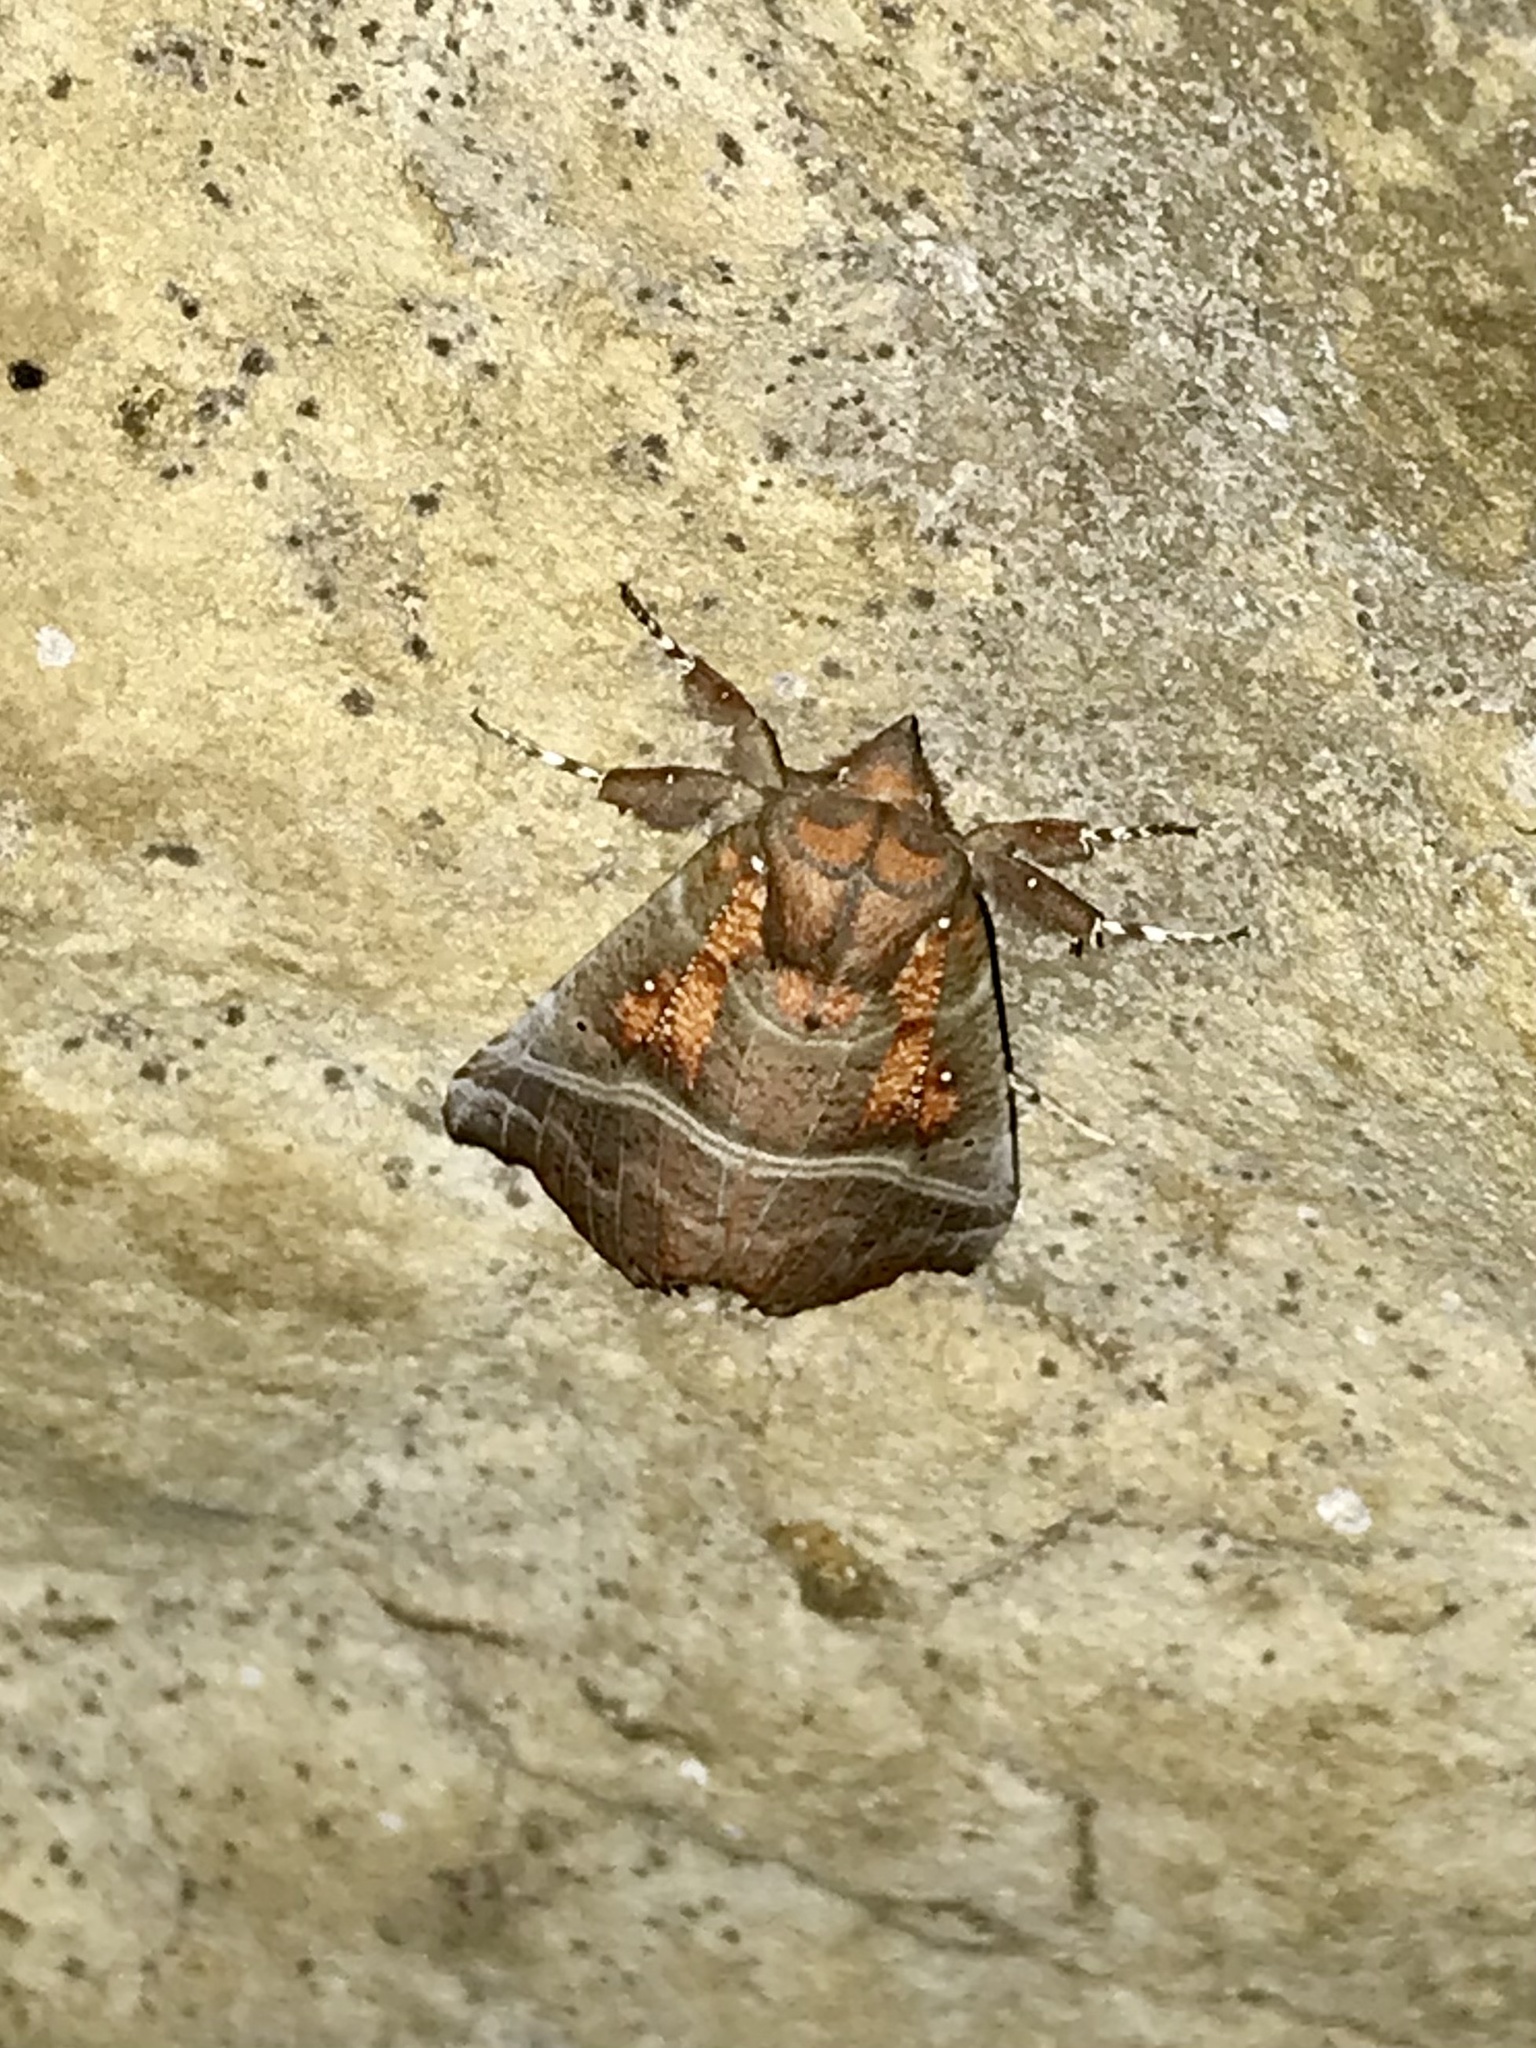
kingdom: Animalia
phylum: Arthropoda
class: Insecta
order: Lepidoptera
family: Erebidae
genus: Scoliopteryx
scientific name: Scoliopteryx libatrix
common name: Herald
